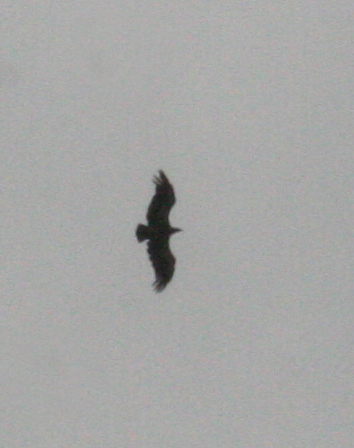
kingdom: Animalia
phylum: Chordata
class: Aves
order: Accipitriformes
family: Accipitridae
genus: Gyps
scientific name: Gyps fulvus
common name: Griffon vulture
